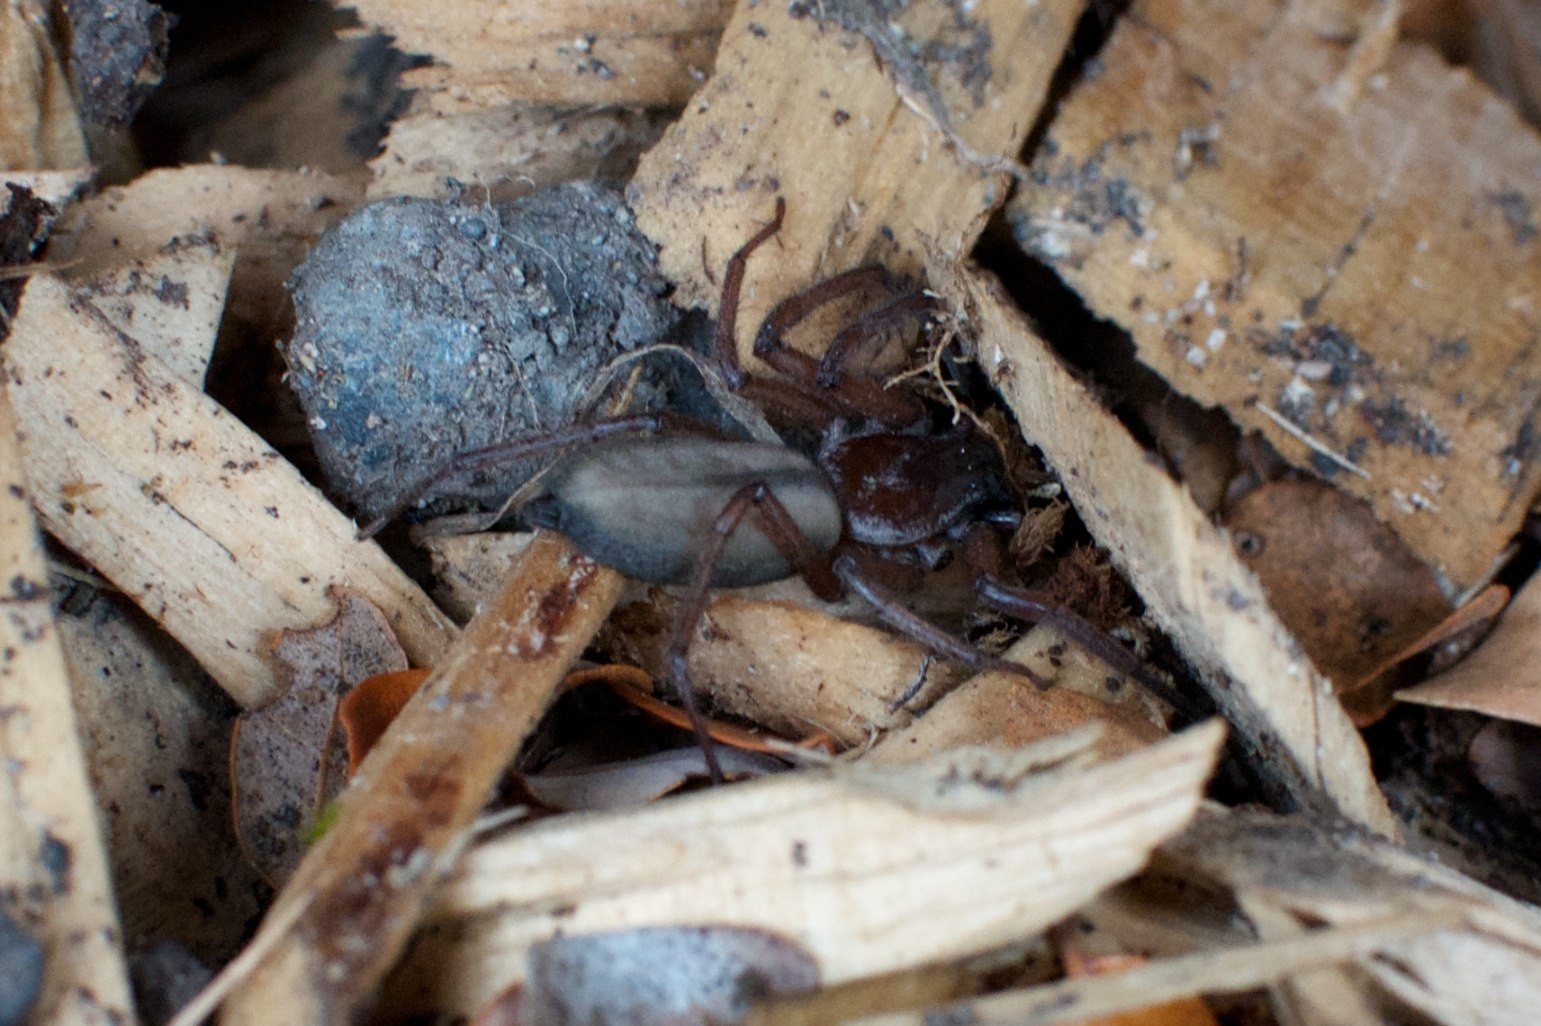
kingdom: Animalia
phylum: Arthropoda
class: Arachnida
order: Araneae
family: Trochanteriidae
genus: Hemicloea
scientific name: Hemicloea rogenhoferi
